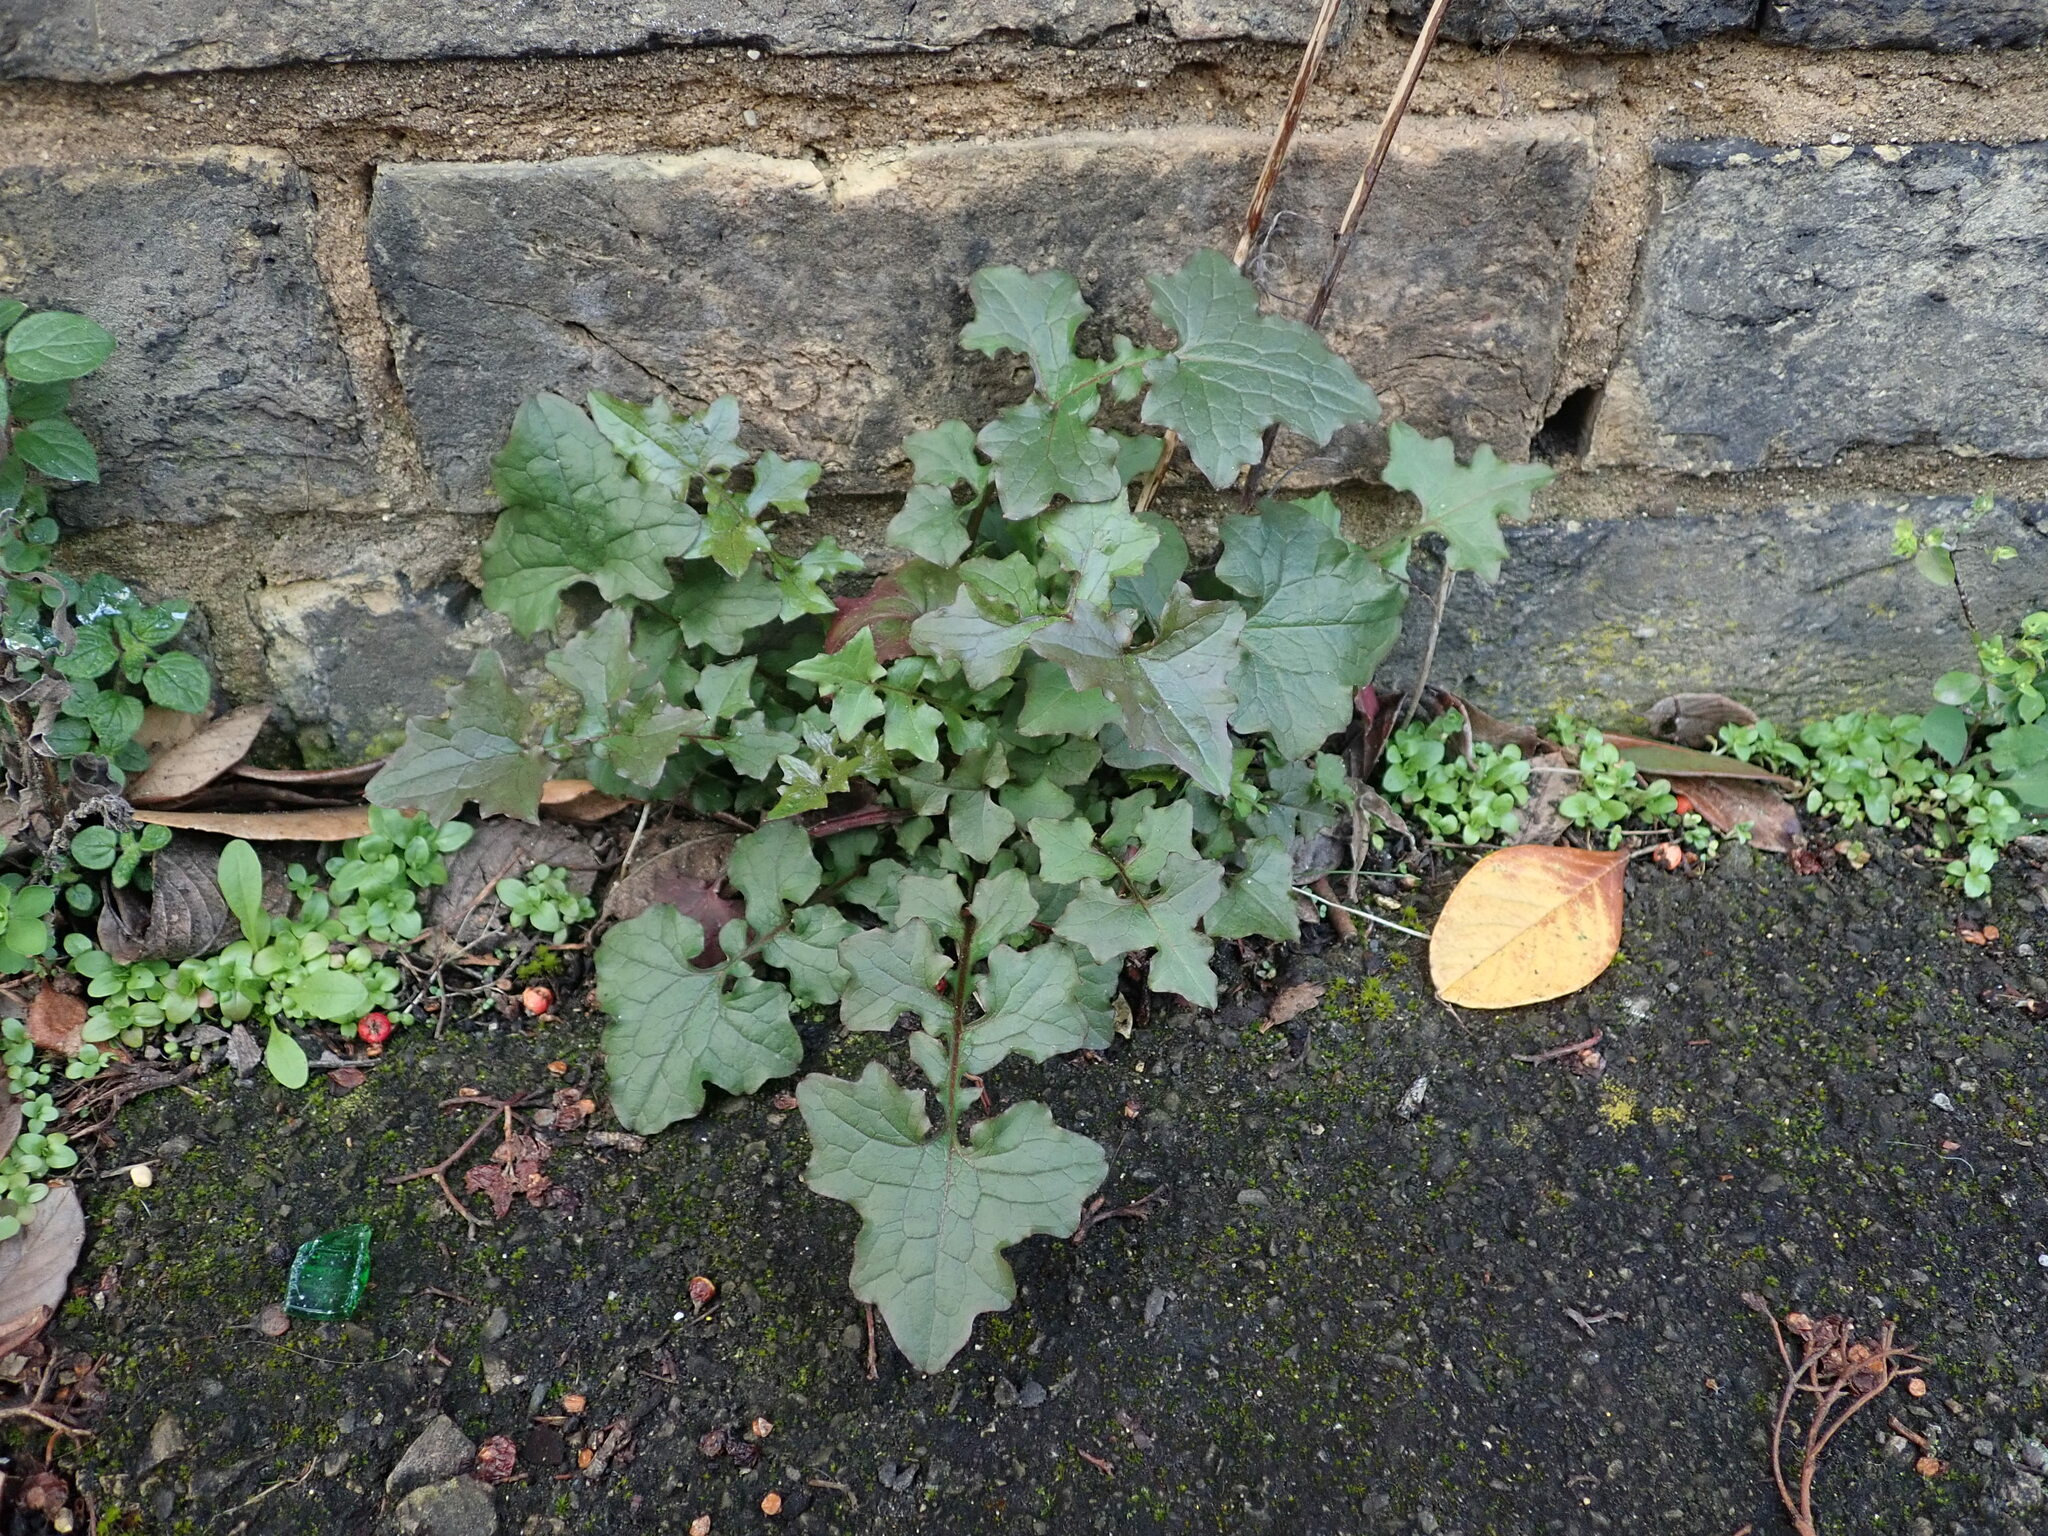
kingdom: Plantae
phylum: Tracheophyta
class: Magnoliopsida
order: Asterales
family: Asteraceae
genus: Mycelis
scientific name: Mycelis muralis
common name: Wall lettuce
